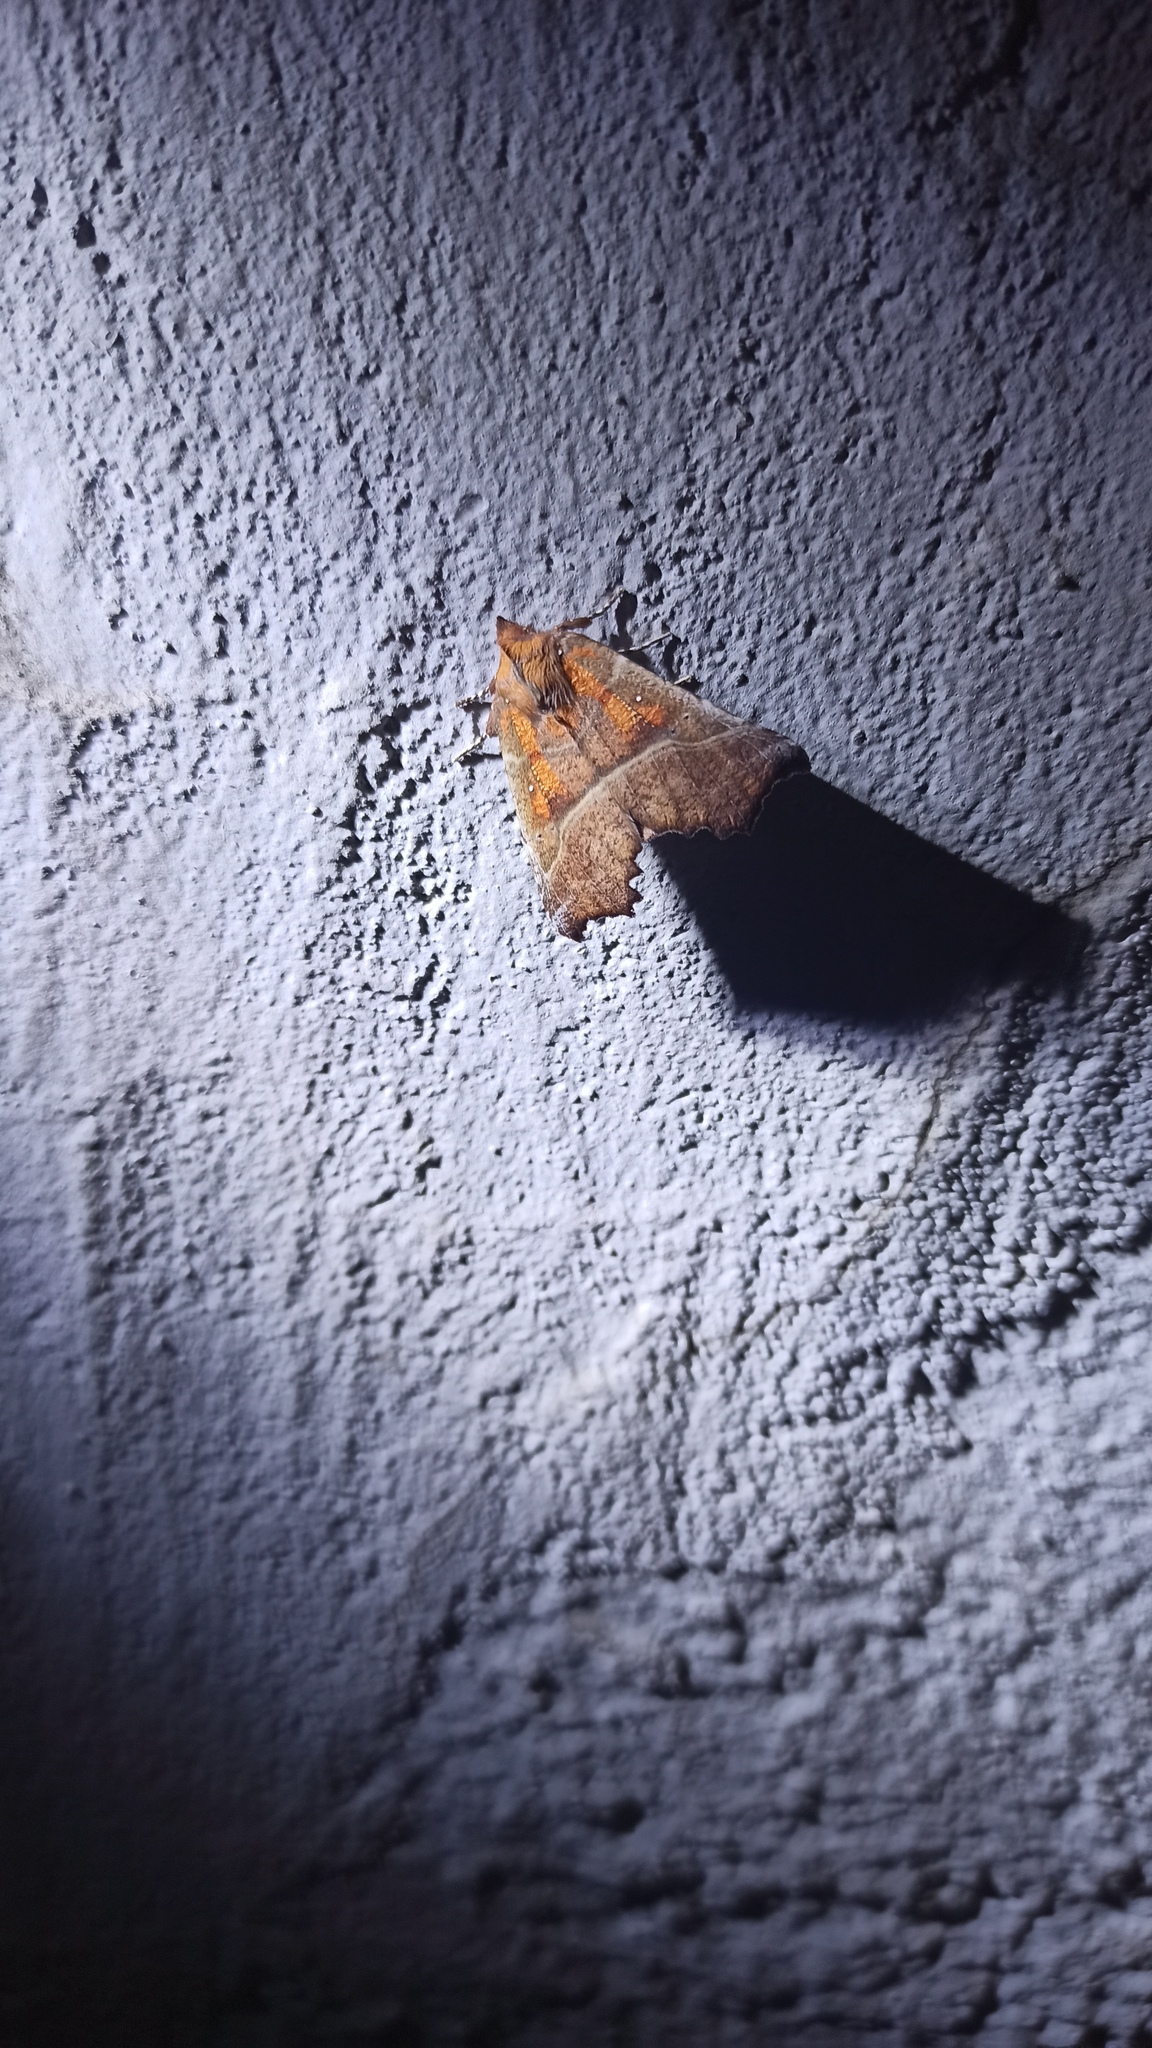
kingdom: Animalia
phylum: Arthropoda
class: Insecta
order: Lepidoptera
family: Erebidae
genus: Scoliopteryx
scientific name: Scoliopteryx libatrix
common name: Herald
